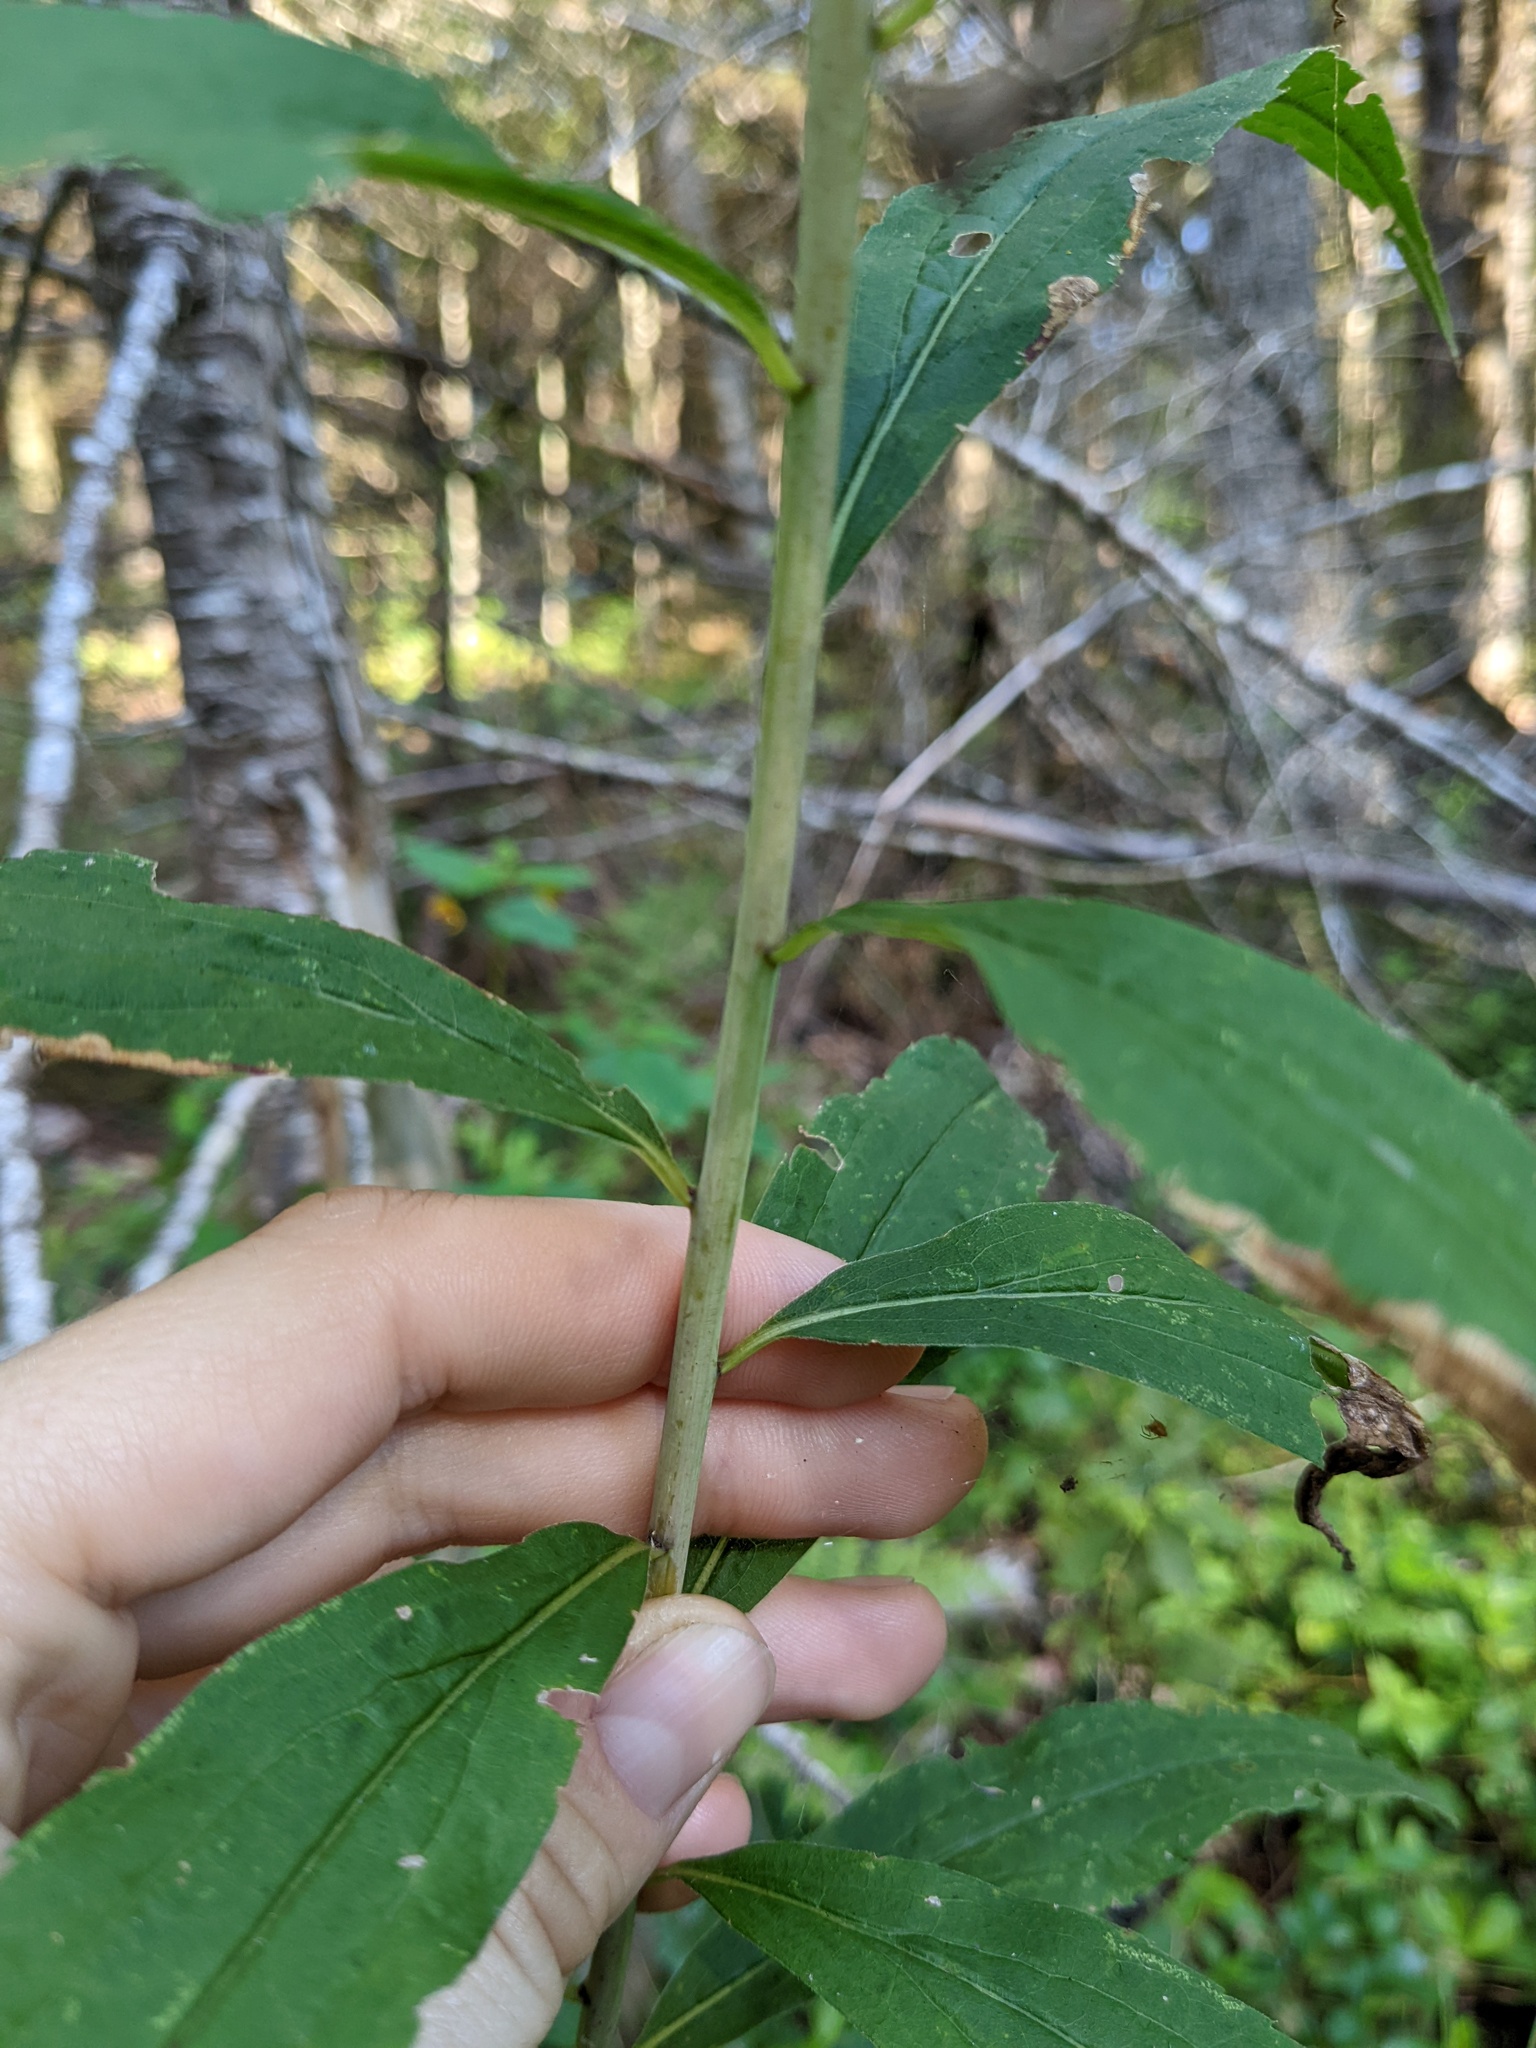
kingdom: Plantae
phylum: Tracheophyta
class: Magnoliopsida
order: Asterales
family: Asteraceae
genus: Solidago
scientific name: Solidago gigantea
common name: Giant goldenrod
